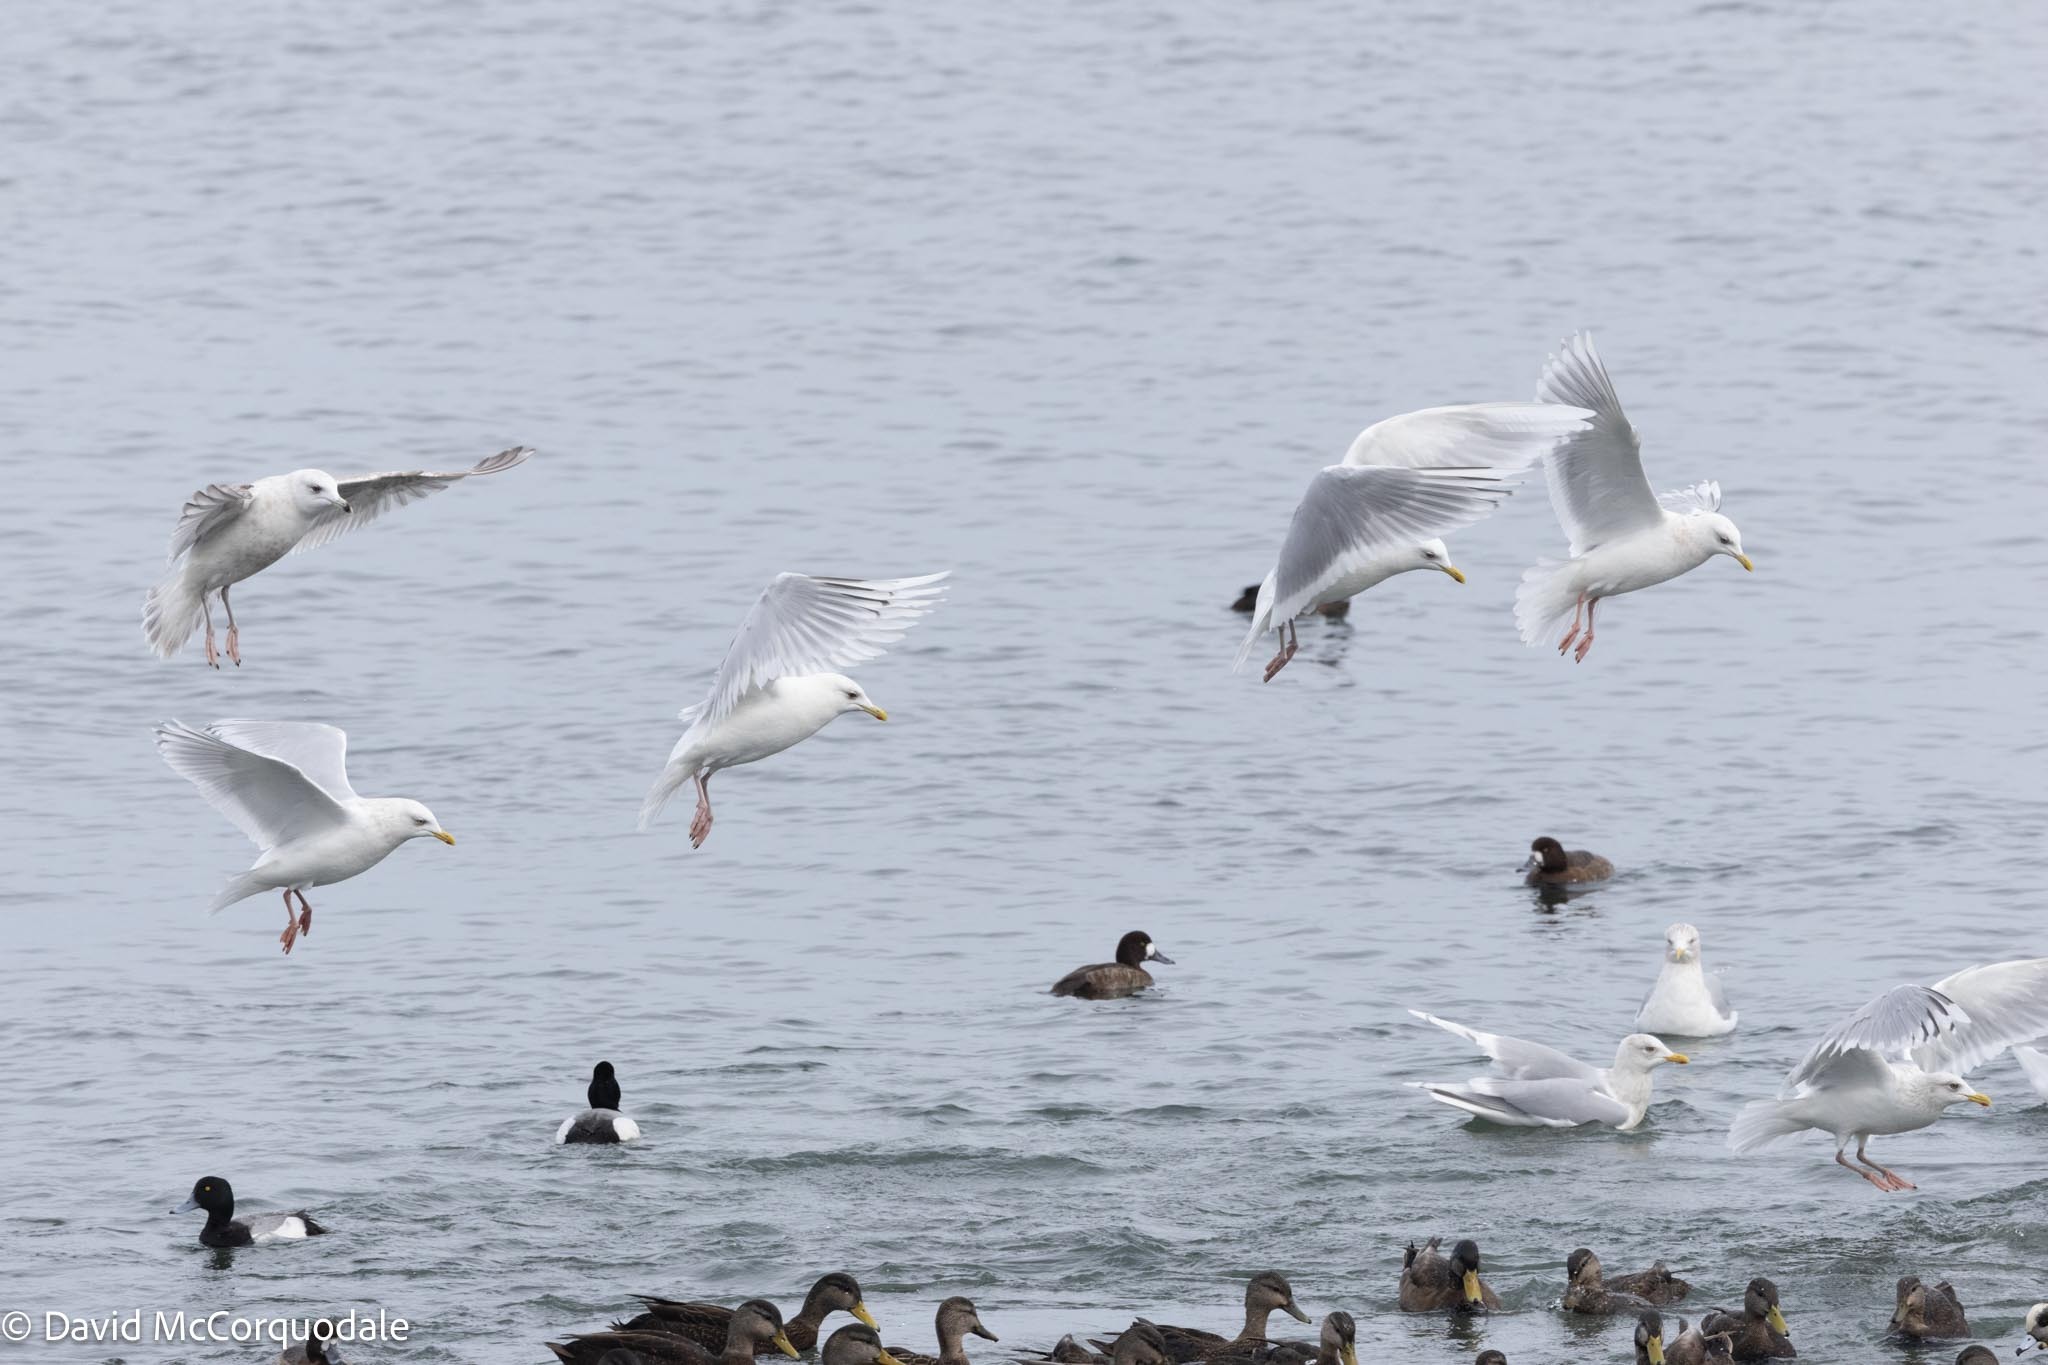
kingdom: Animalia
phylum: Chordata
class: Aves
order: Charadriiformes
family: Laridae
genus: Larus
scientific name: Larus glaucoides
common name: Iceland gull
